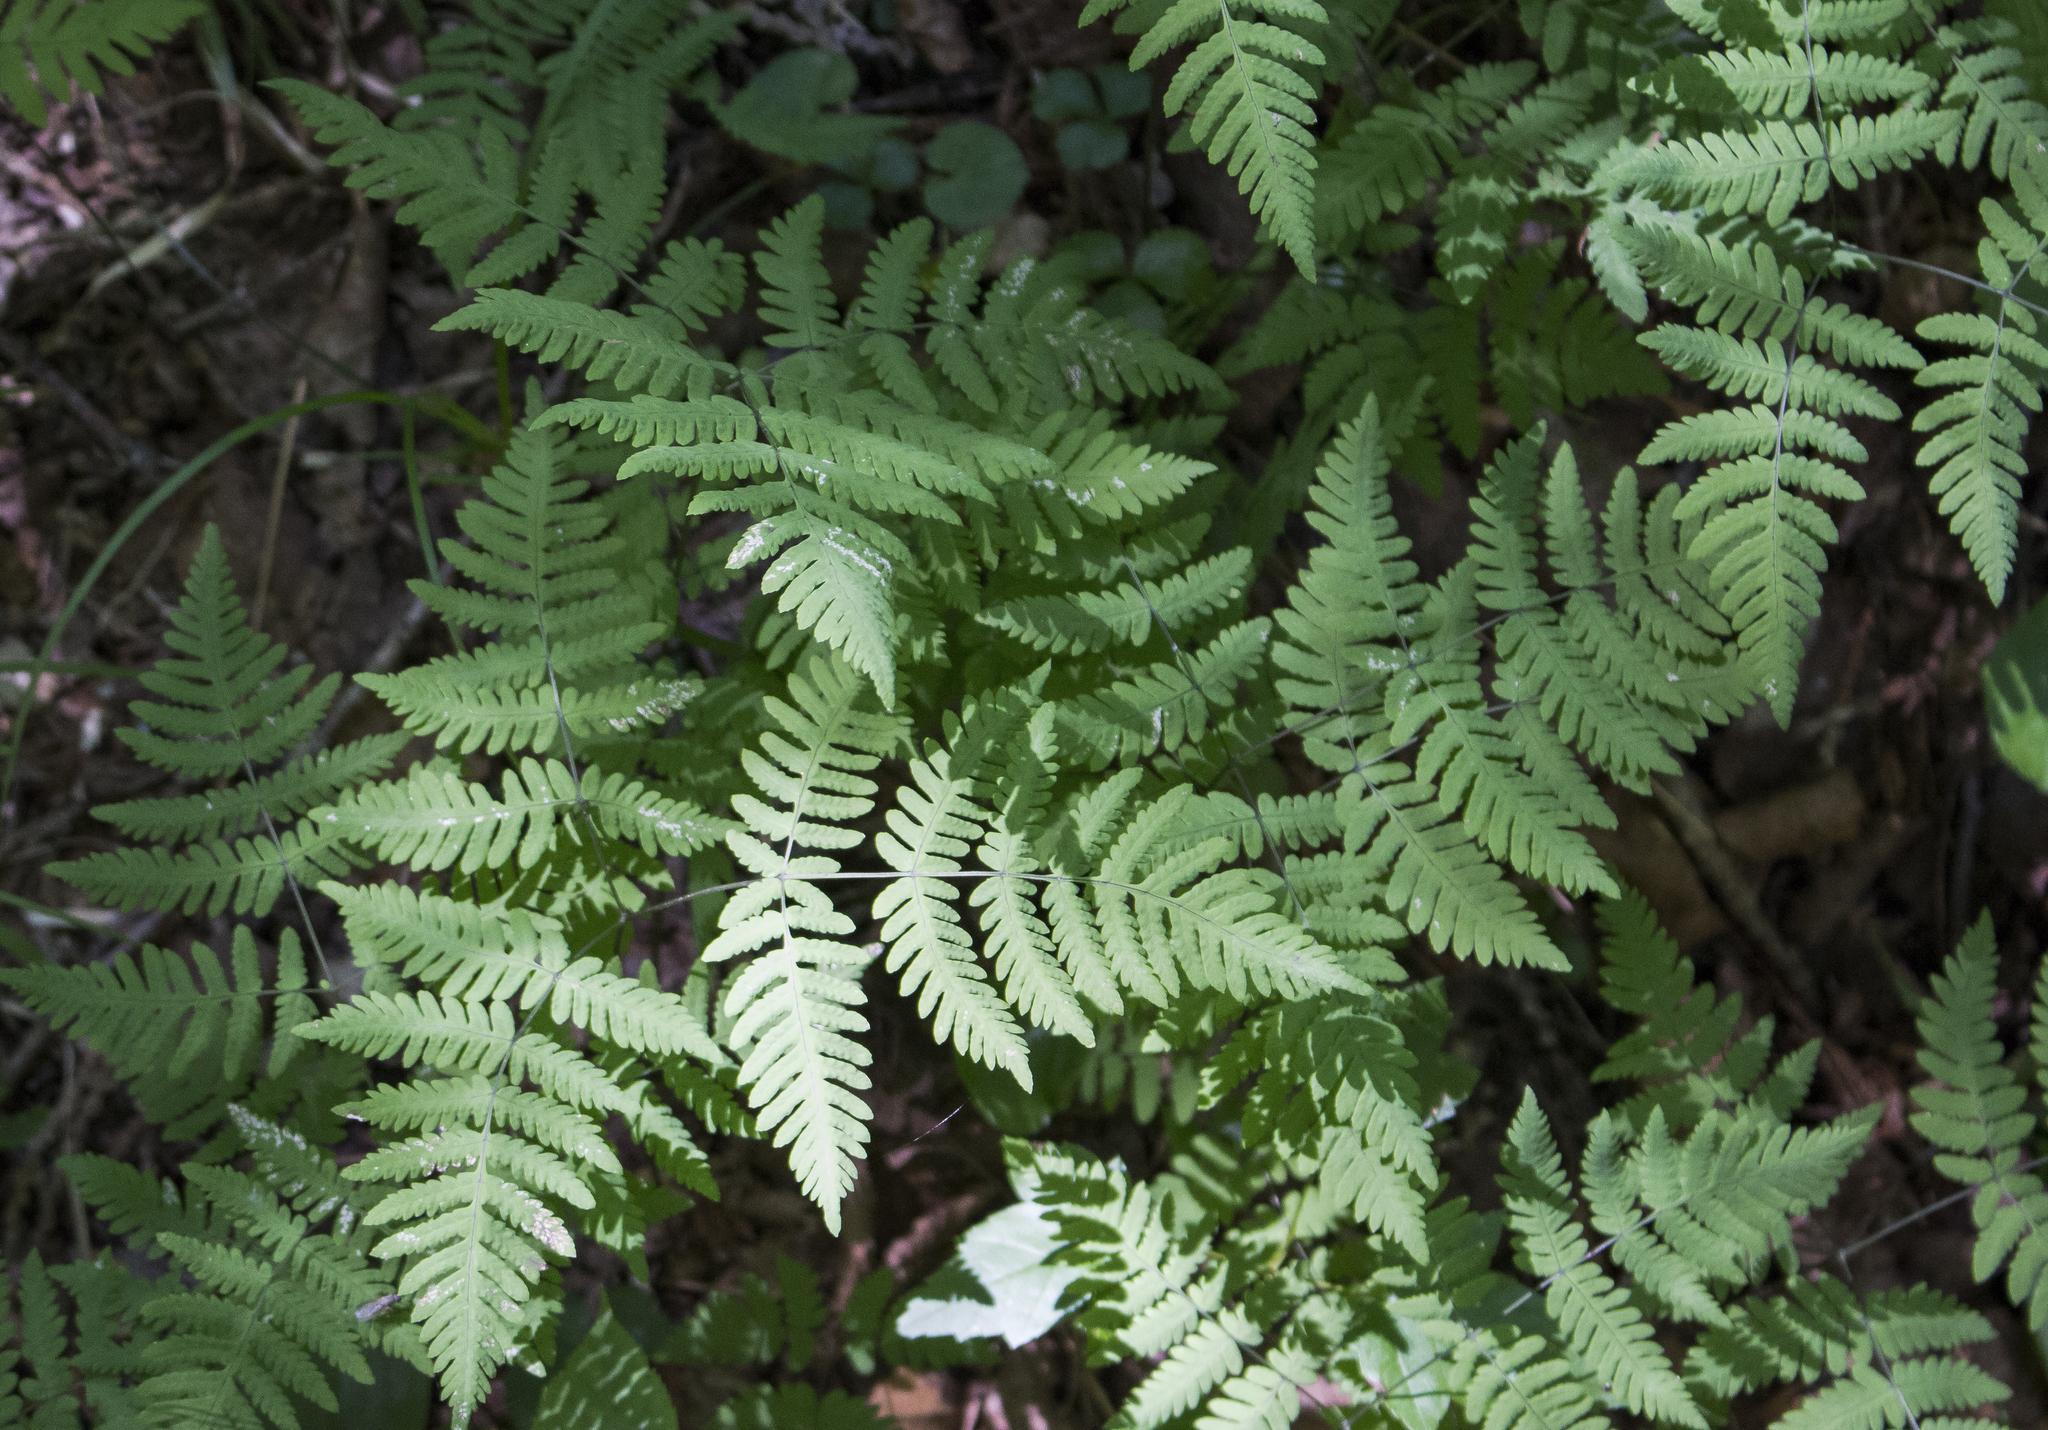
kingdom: Plantae
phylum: Tracheophyta
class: Polypodiopsida
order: Polypodiales
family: Cystopteridaceae
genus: Gymnocarpium
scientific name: Gymnocarpium dryopteris
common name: Oak fern
